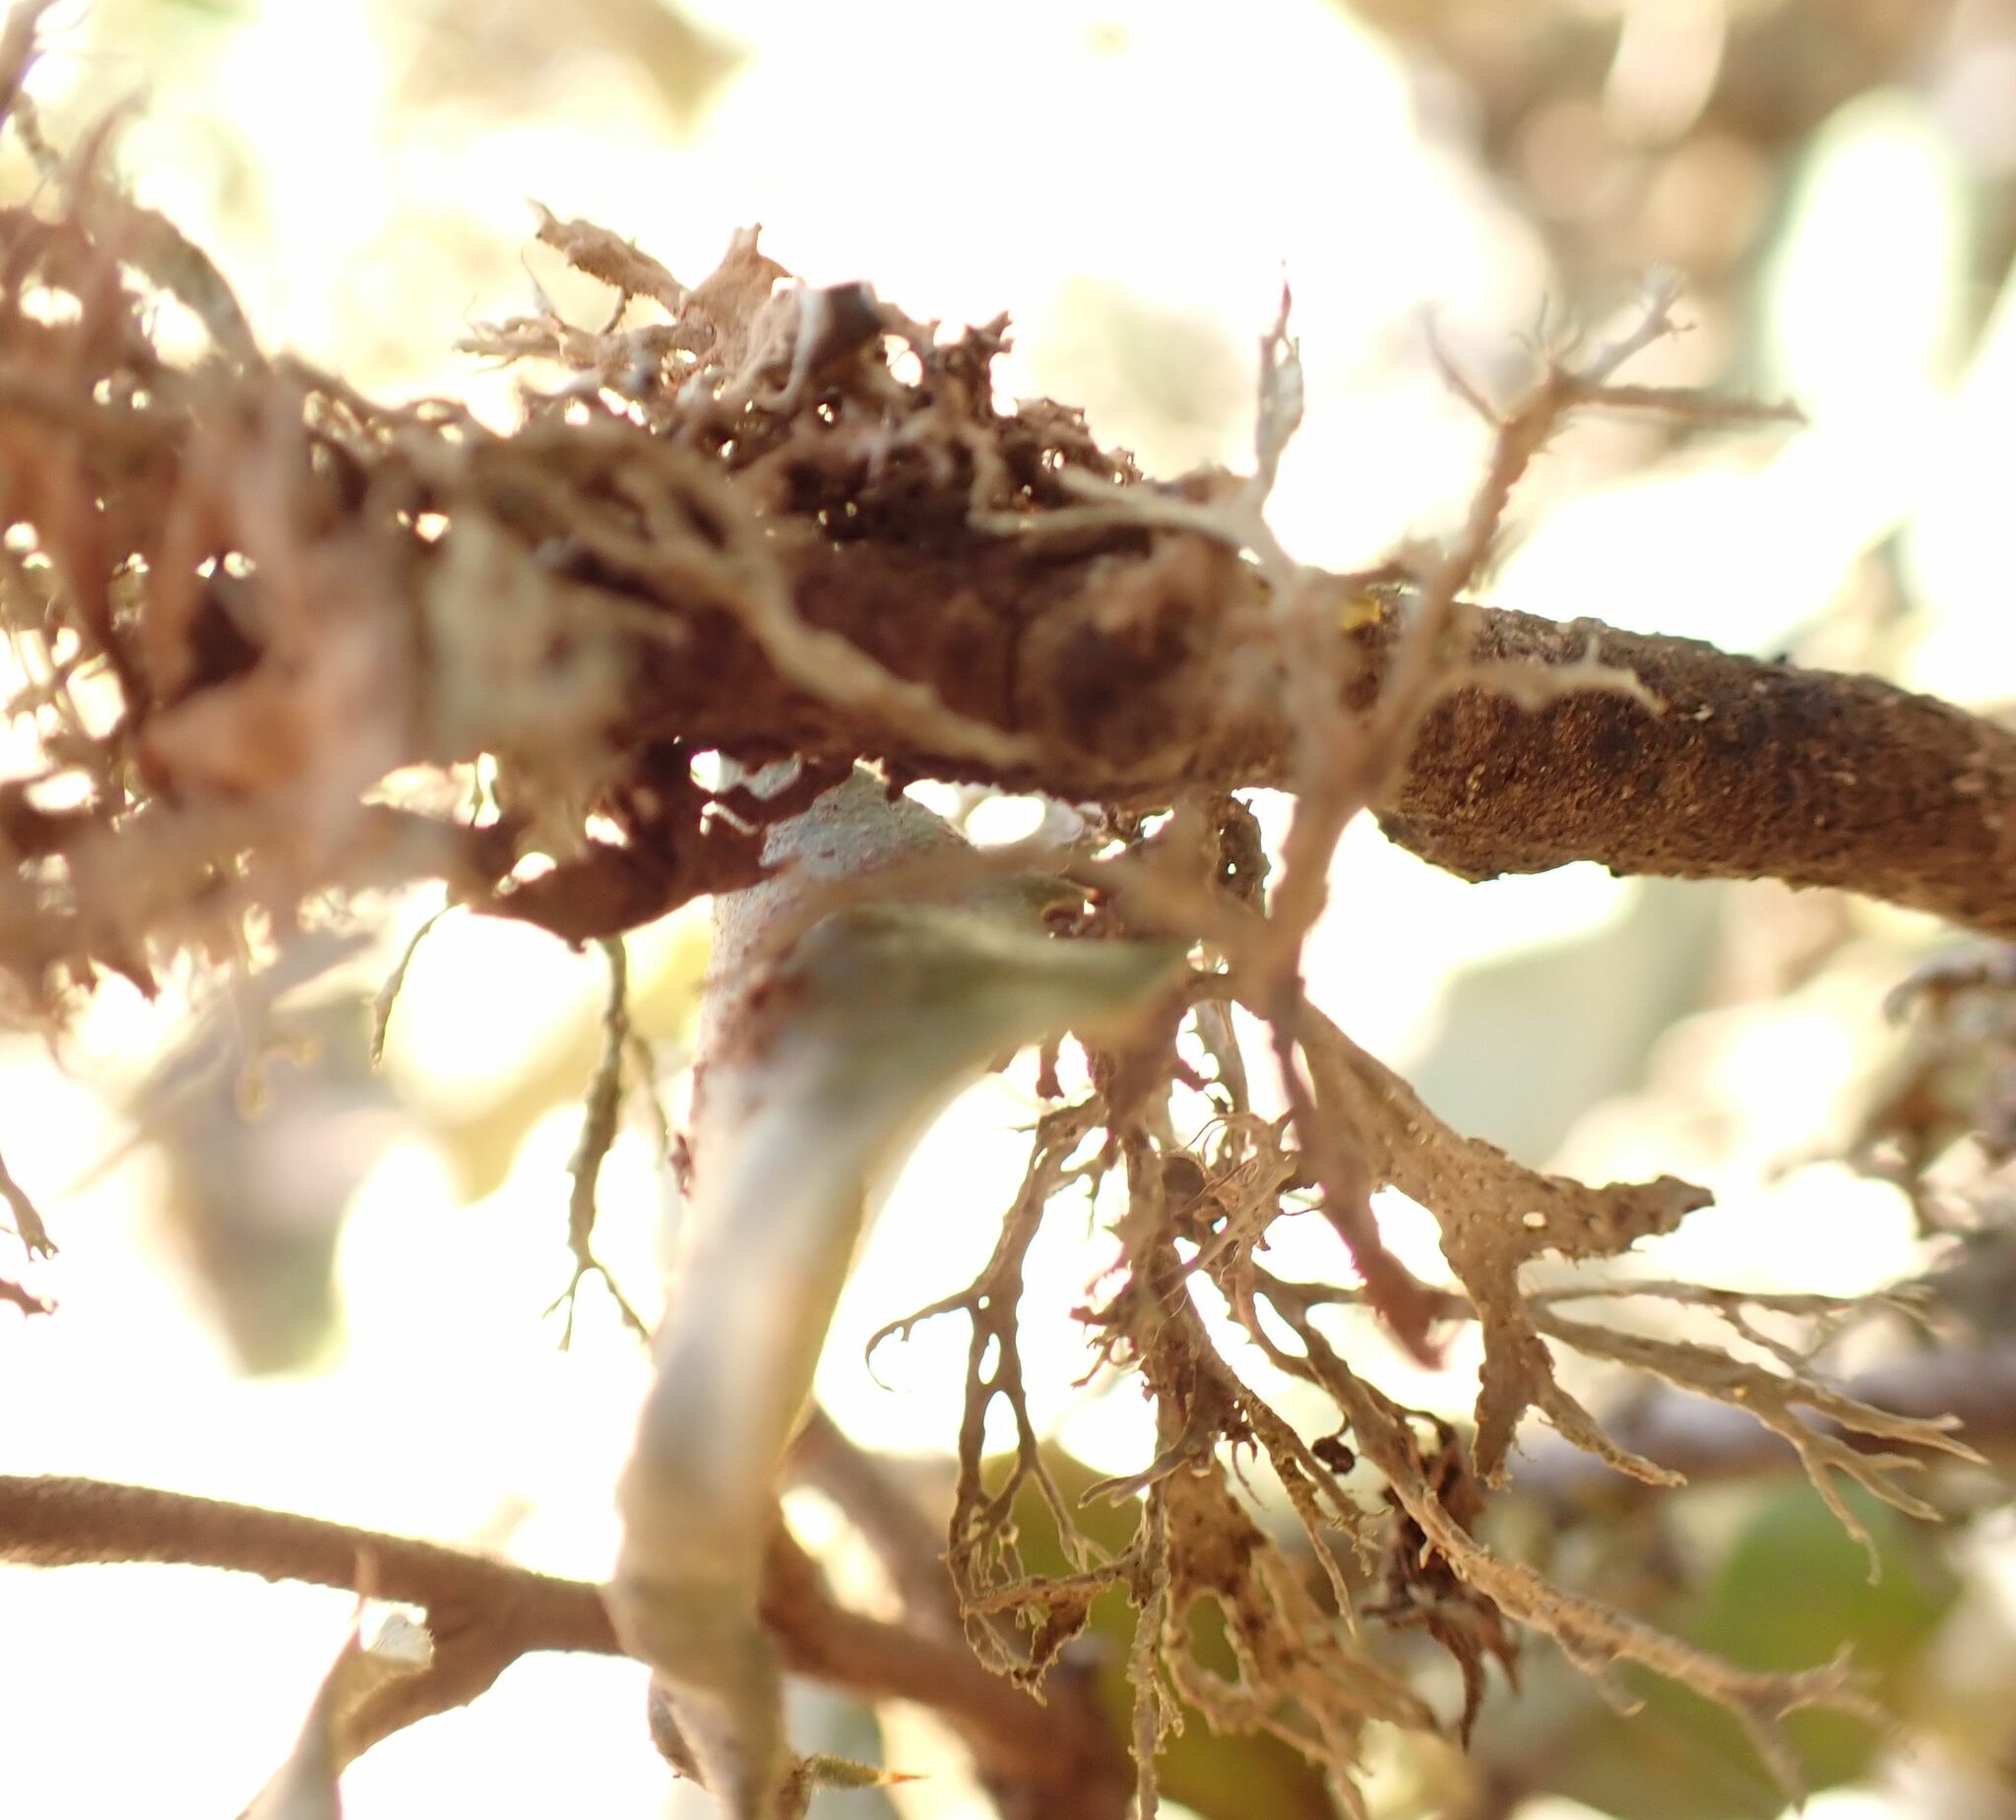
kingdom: Fungi
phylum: Ascomycota
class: Lecanoromycetes
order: Lecanorales
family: Ramalinaceae
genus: Ramalina
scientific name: Ramalina farinacea
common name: Farinose cartilage lichen
